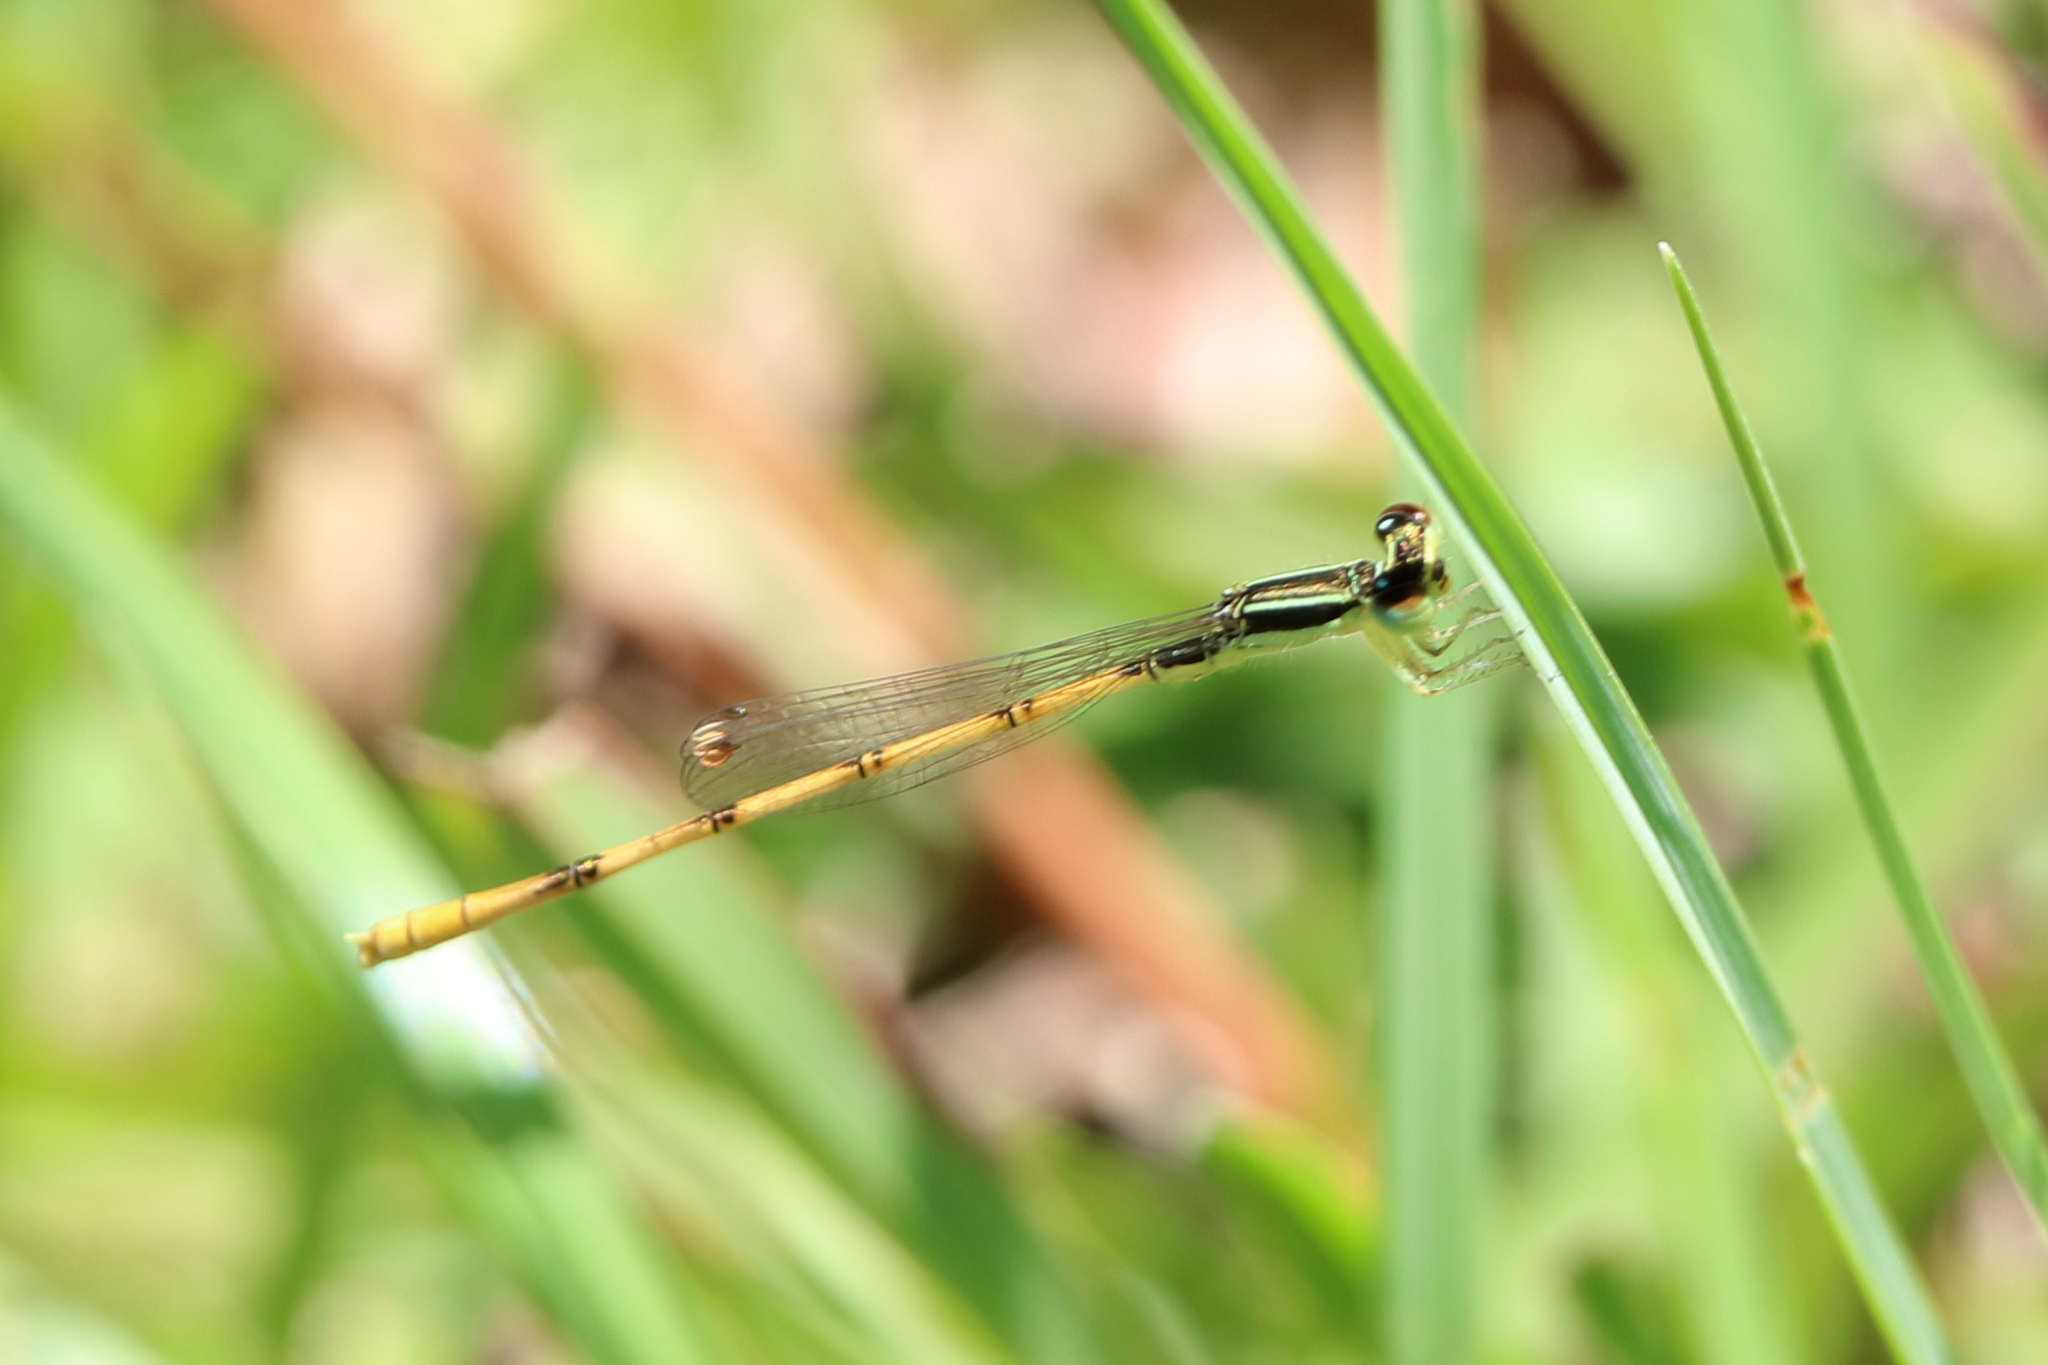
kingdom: Animalia
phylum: Arthropoda
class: Insecta
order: Odonata
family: Coenagrionidae
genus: Ischnura
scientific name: Ischnura hastata
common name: Citrine forktail
